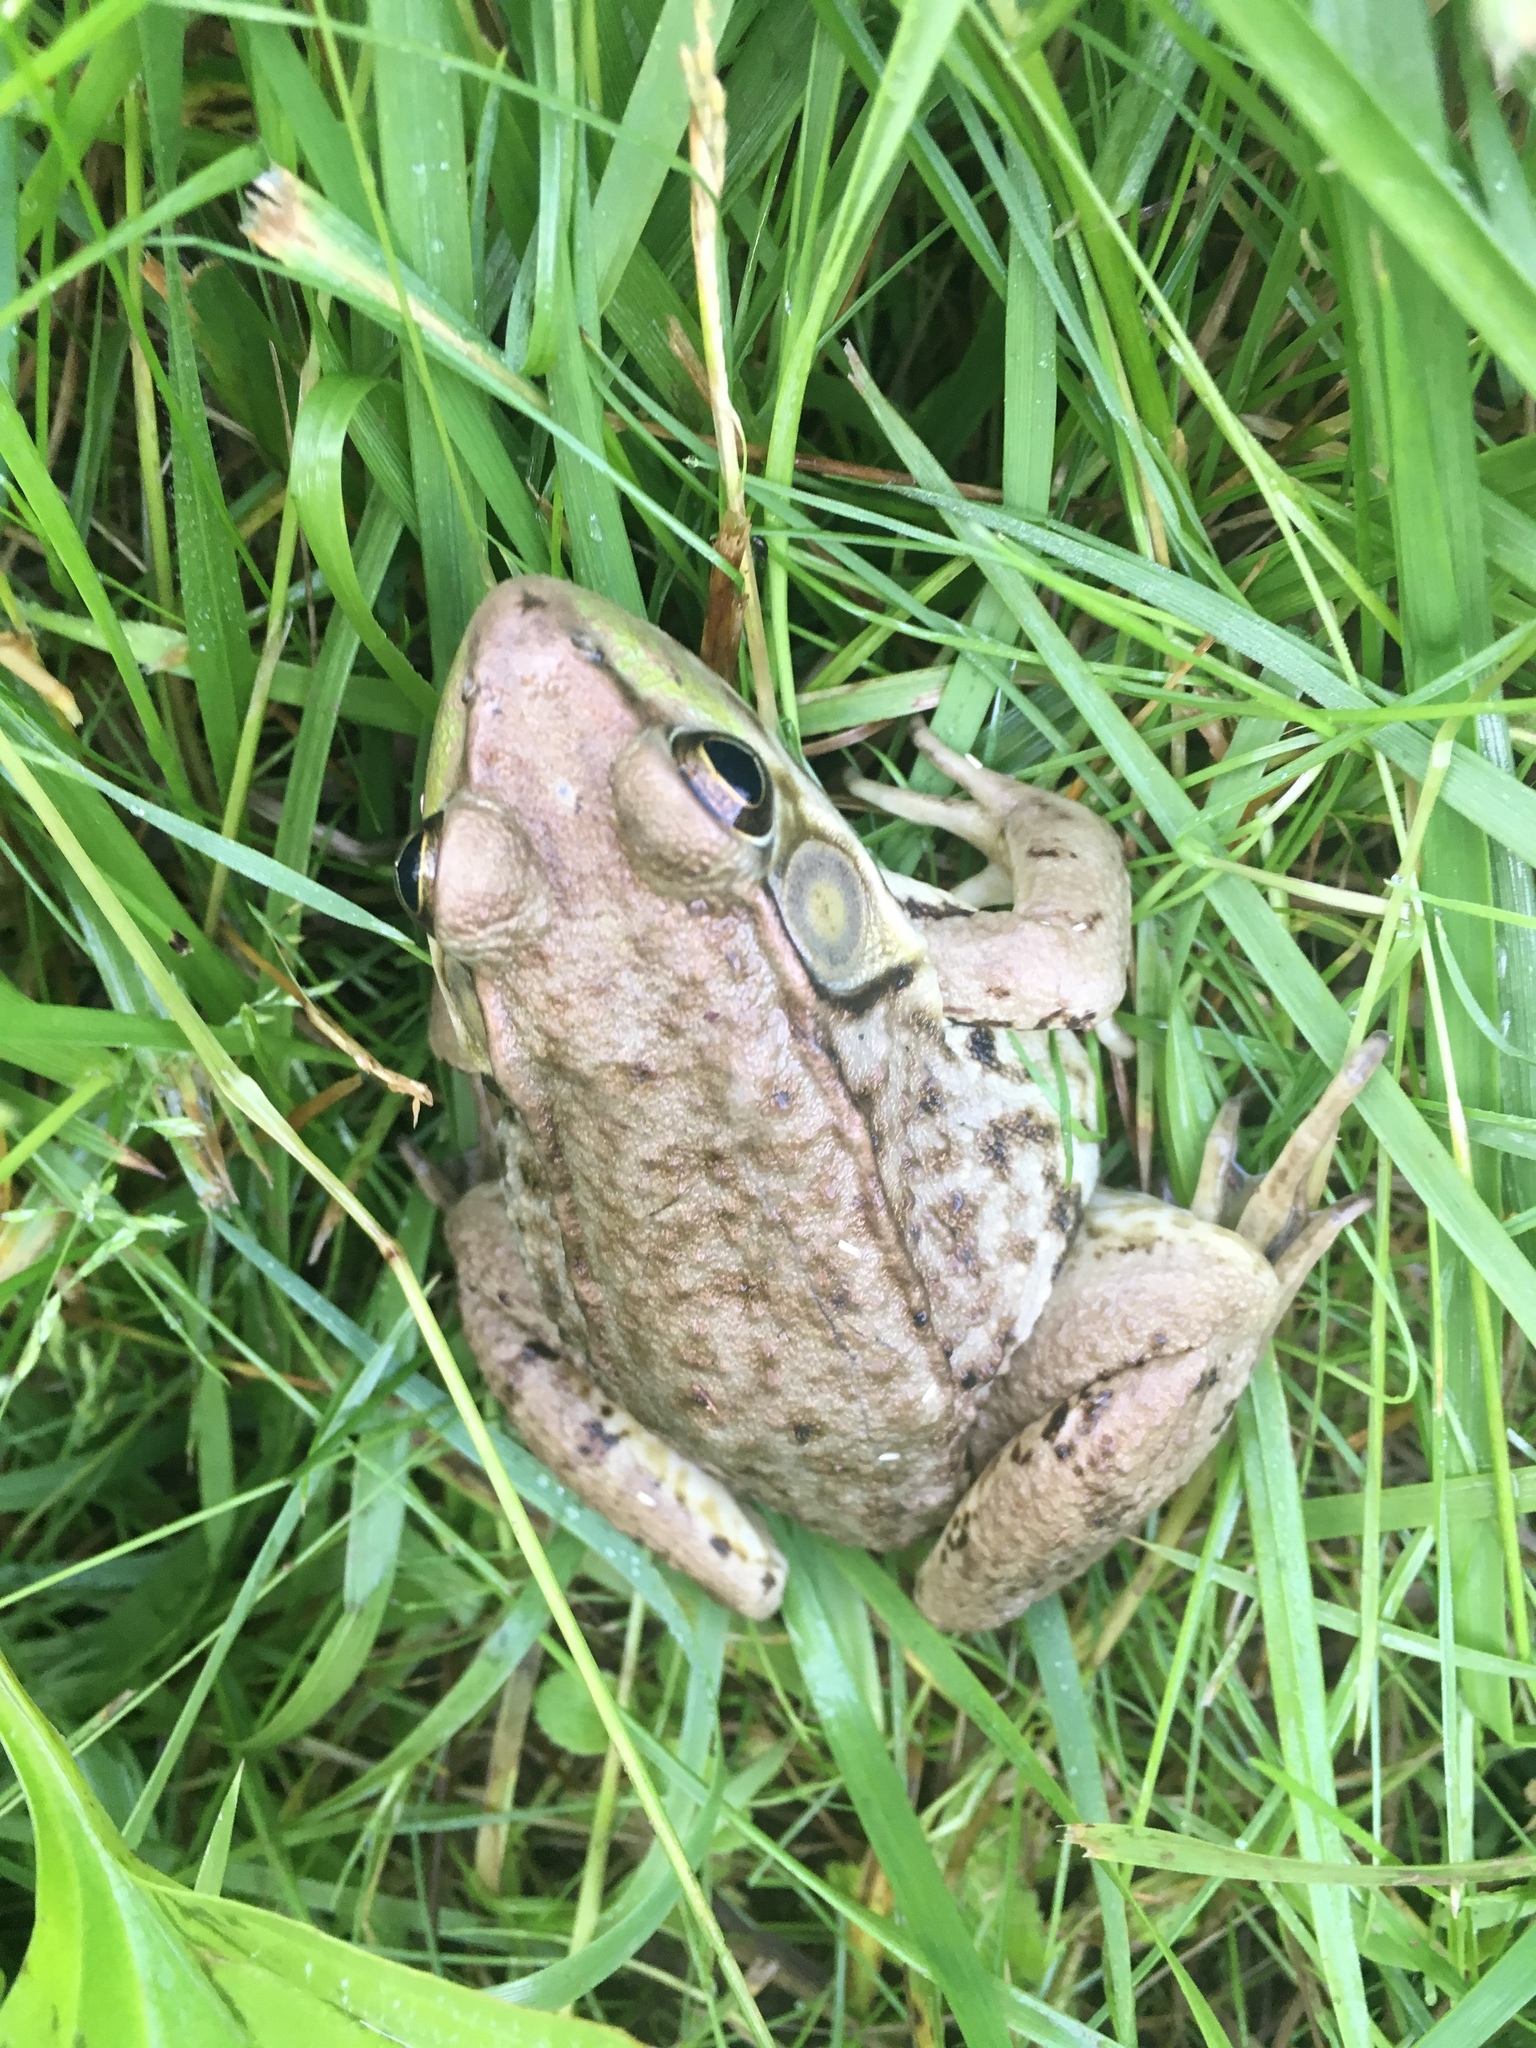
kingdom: Animalia
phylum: Chordata
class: Amphibia
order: Anura
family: Ranidae
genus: Lithobates
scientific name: Lithobates clamitans
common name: Green frog
